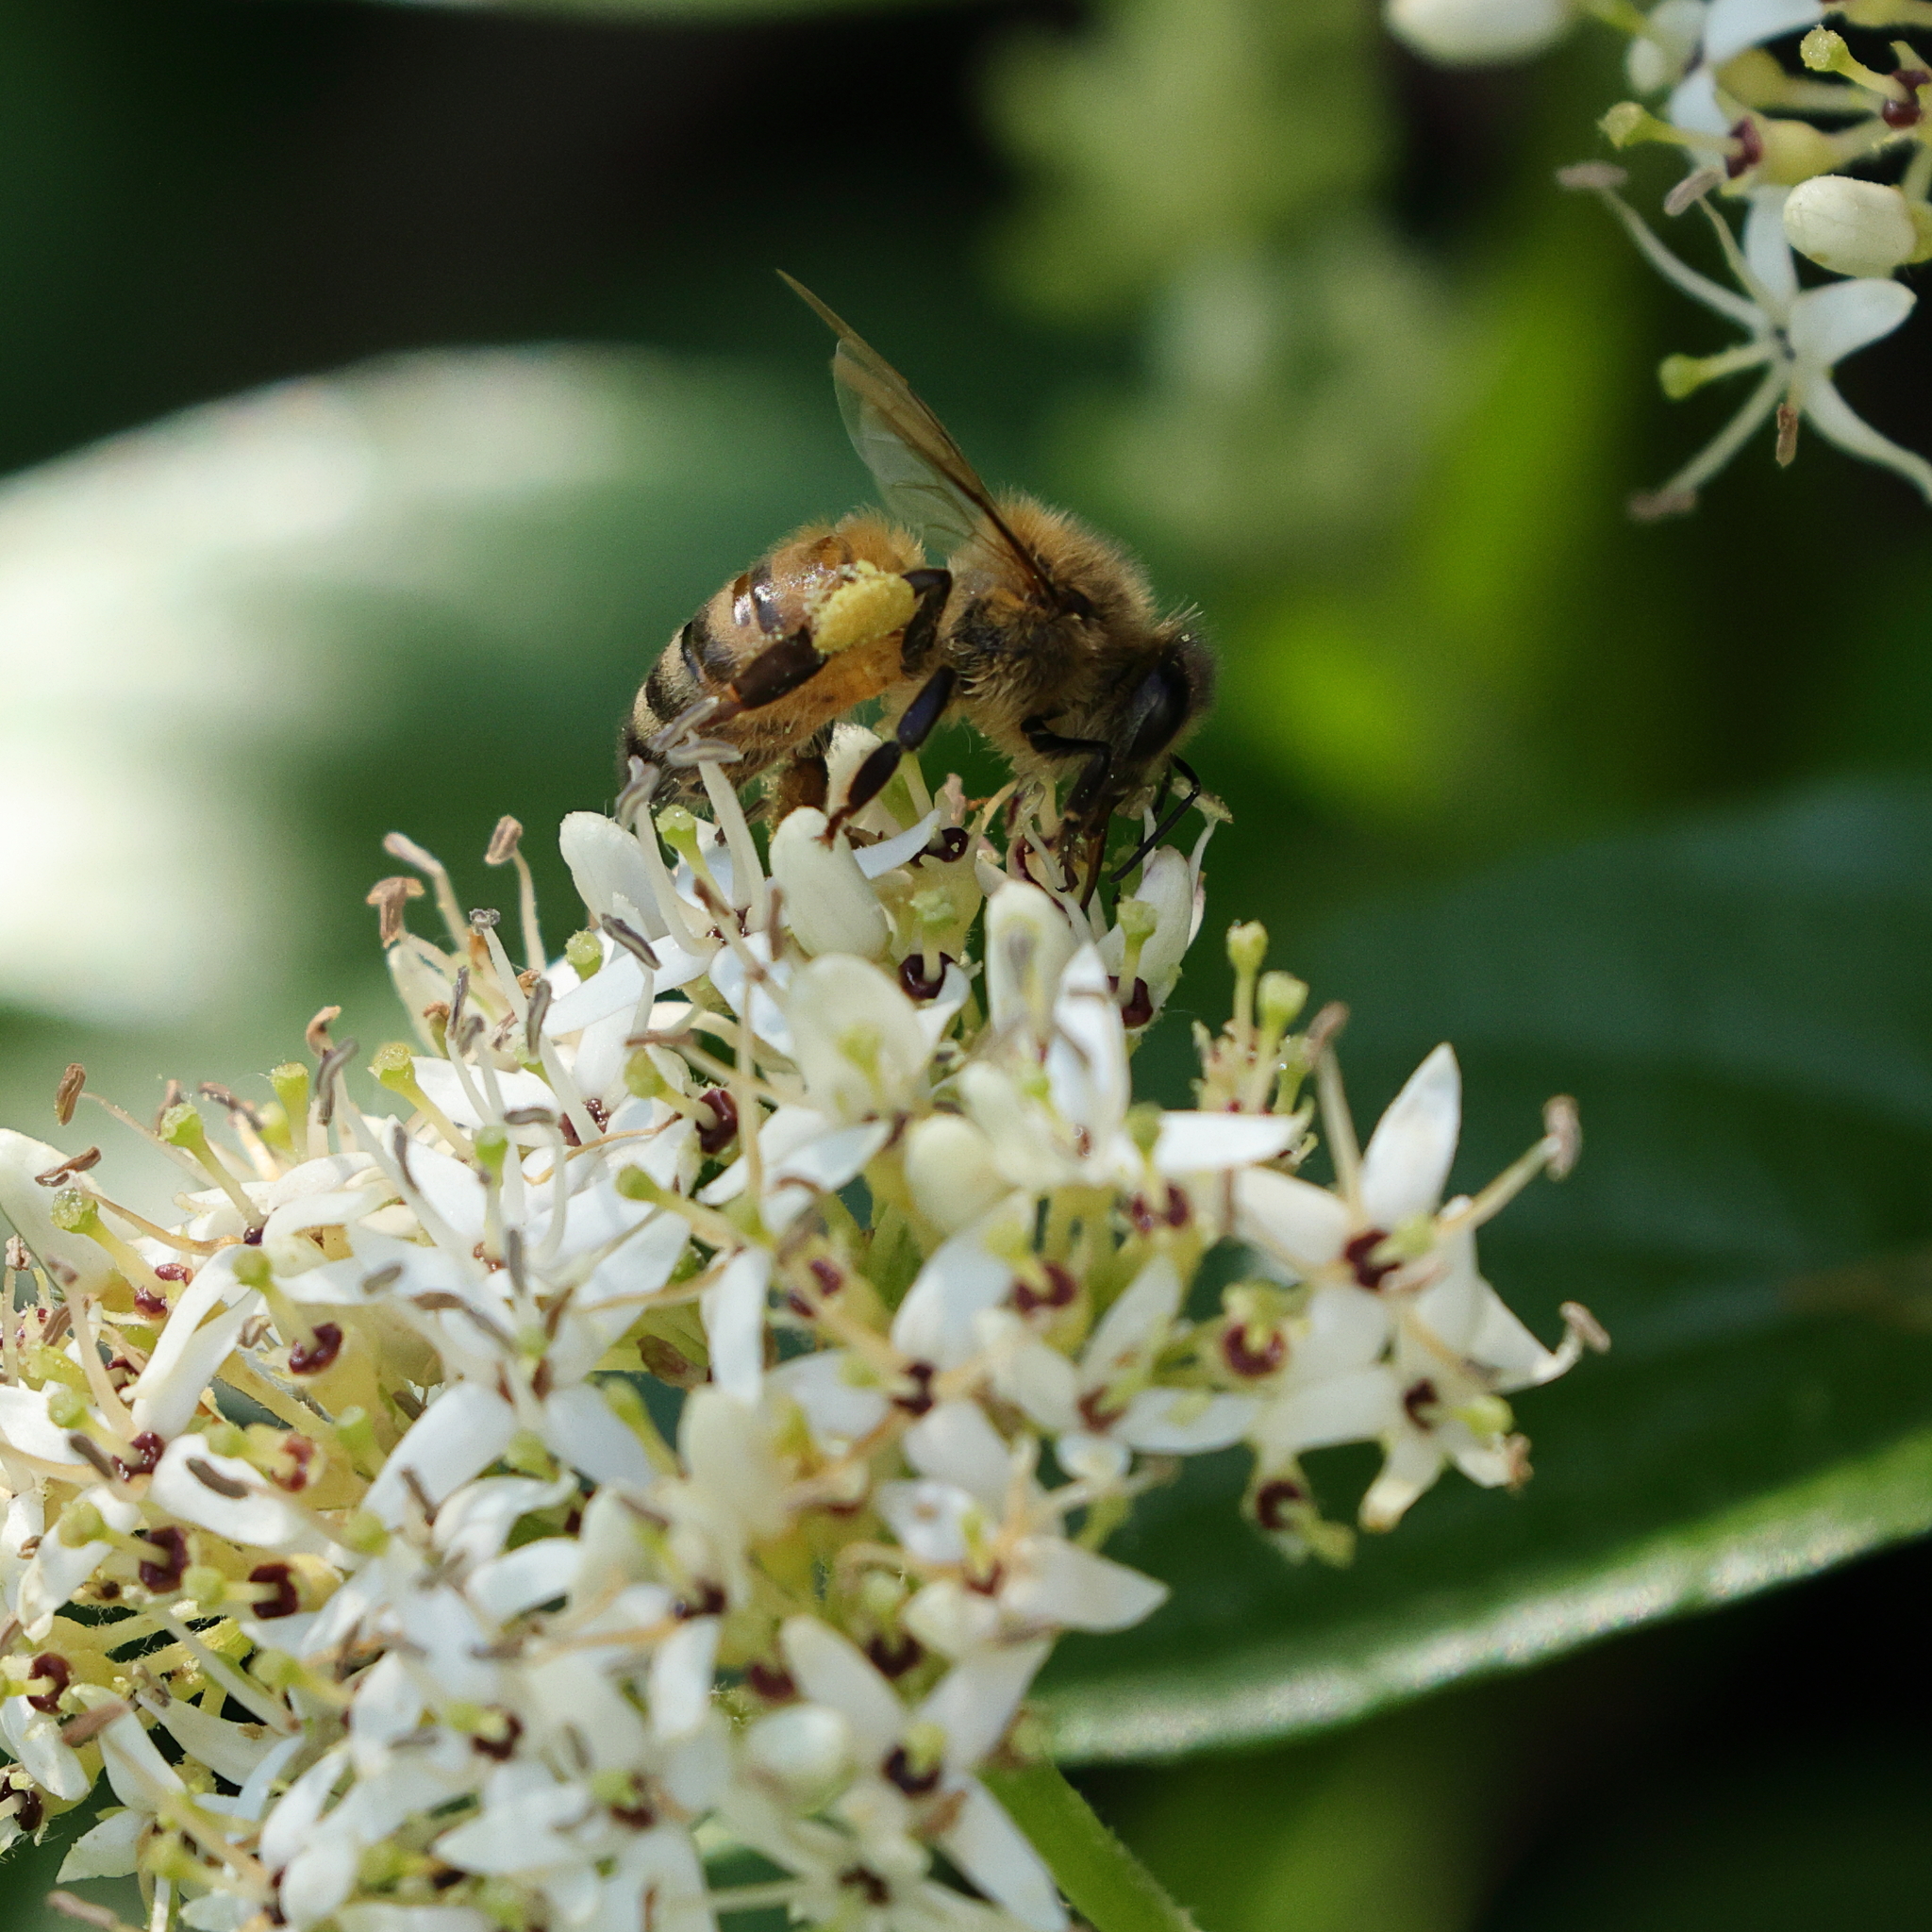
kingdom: Animalia
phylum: Arthropoda
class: Insecta
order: Hymenoptera
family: Apidae
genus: Apis
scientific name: Apis mellifera
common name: Honey bee
